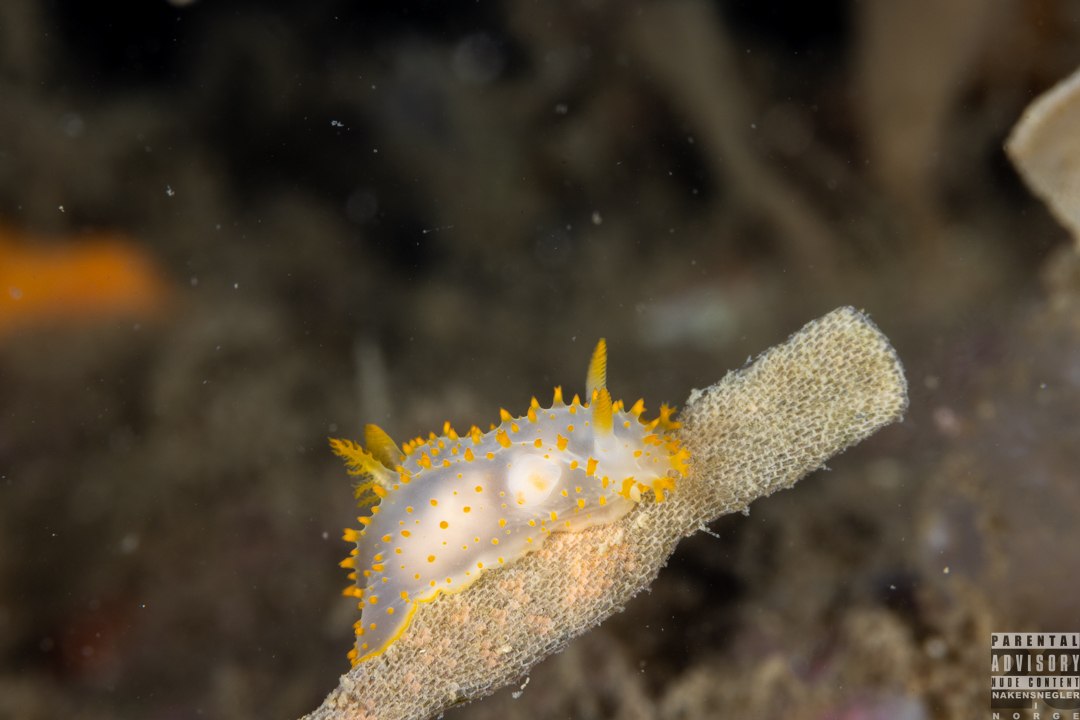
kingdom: Animalia
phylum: Mollusca
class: Gastropoda
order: Nudibranchia
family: Polyceridae
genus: Crimora
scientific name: Crimora papillata
